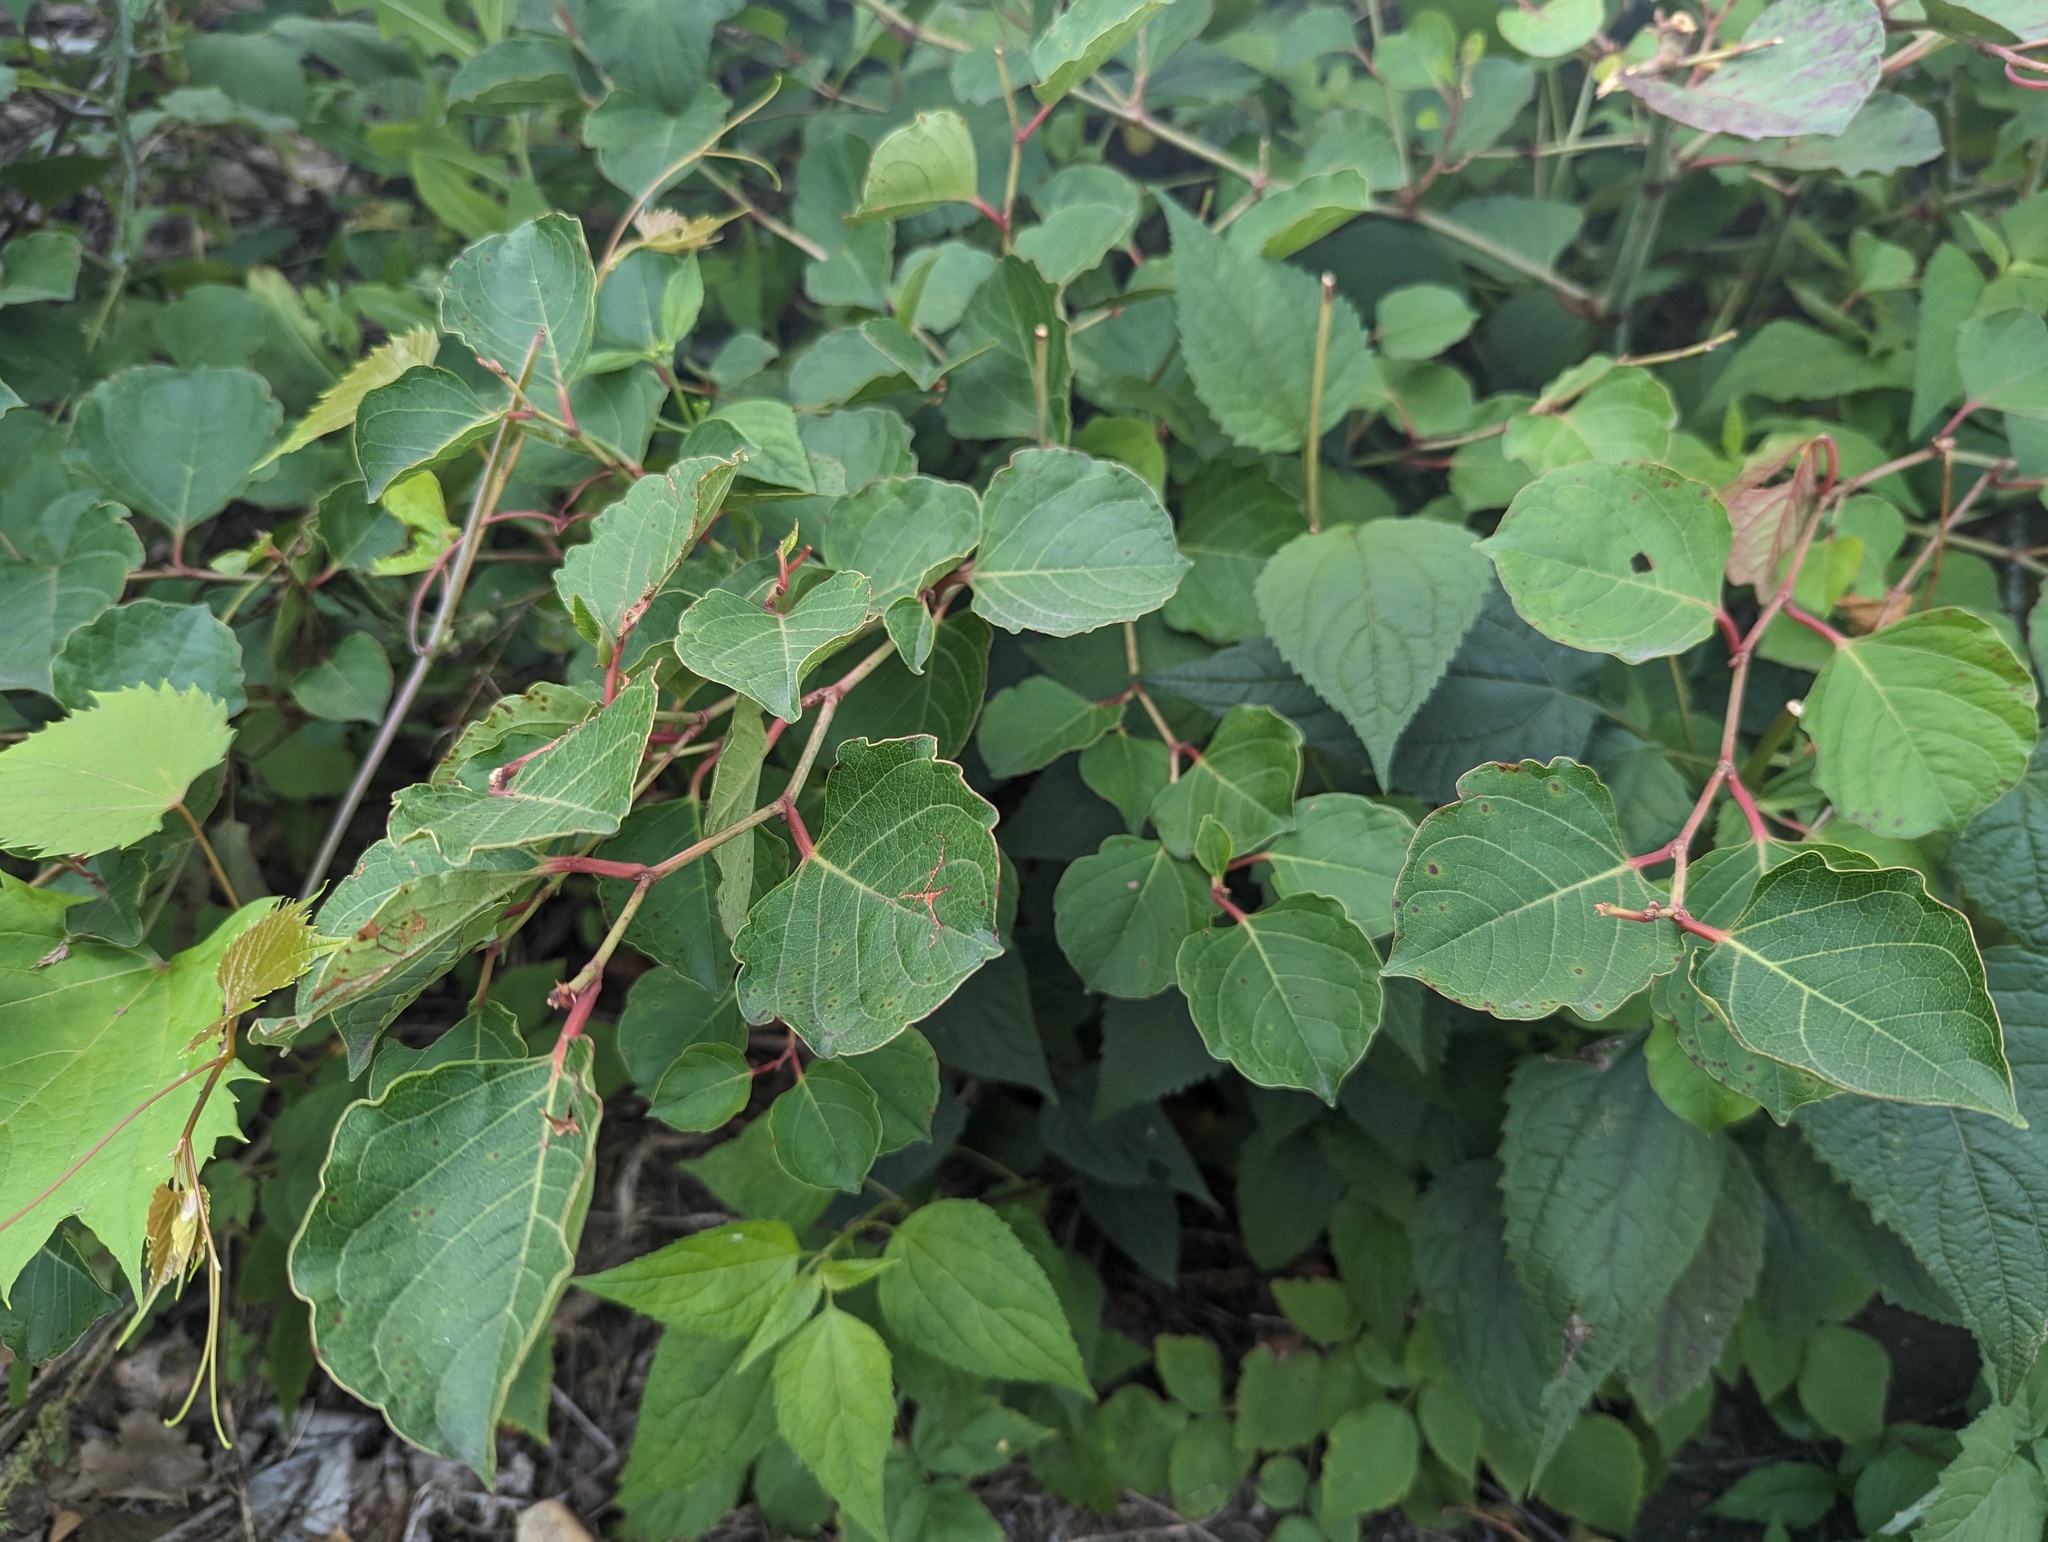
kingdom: Plantae
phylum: Tracheophyta
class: Magnoliopsida
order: Caryophyllales
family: Polygonaceae
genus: Reynoutria
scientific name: Reynoutria japonica
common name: Japanese knotweed
